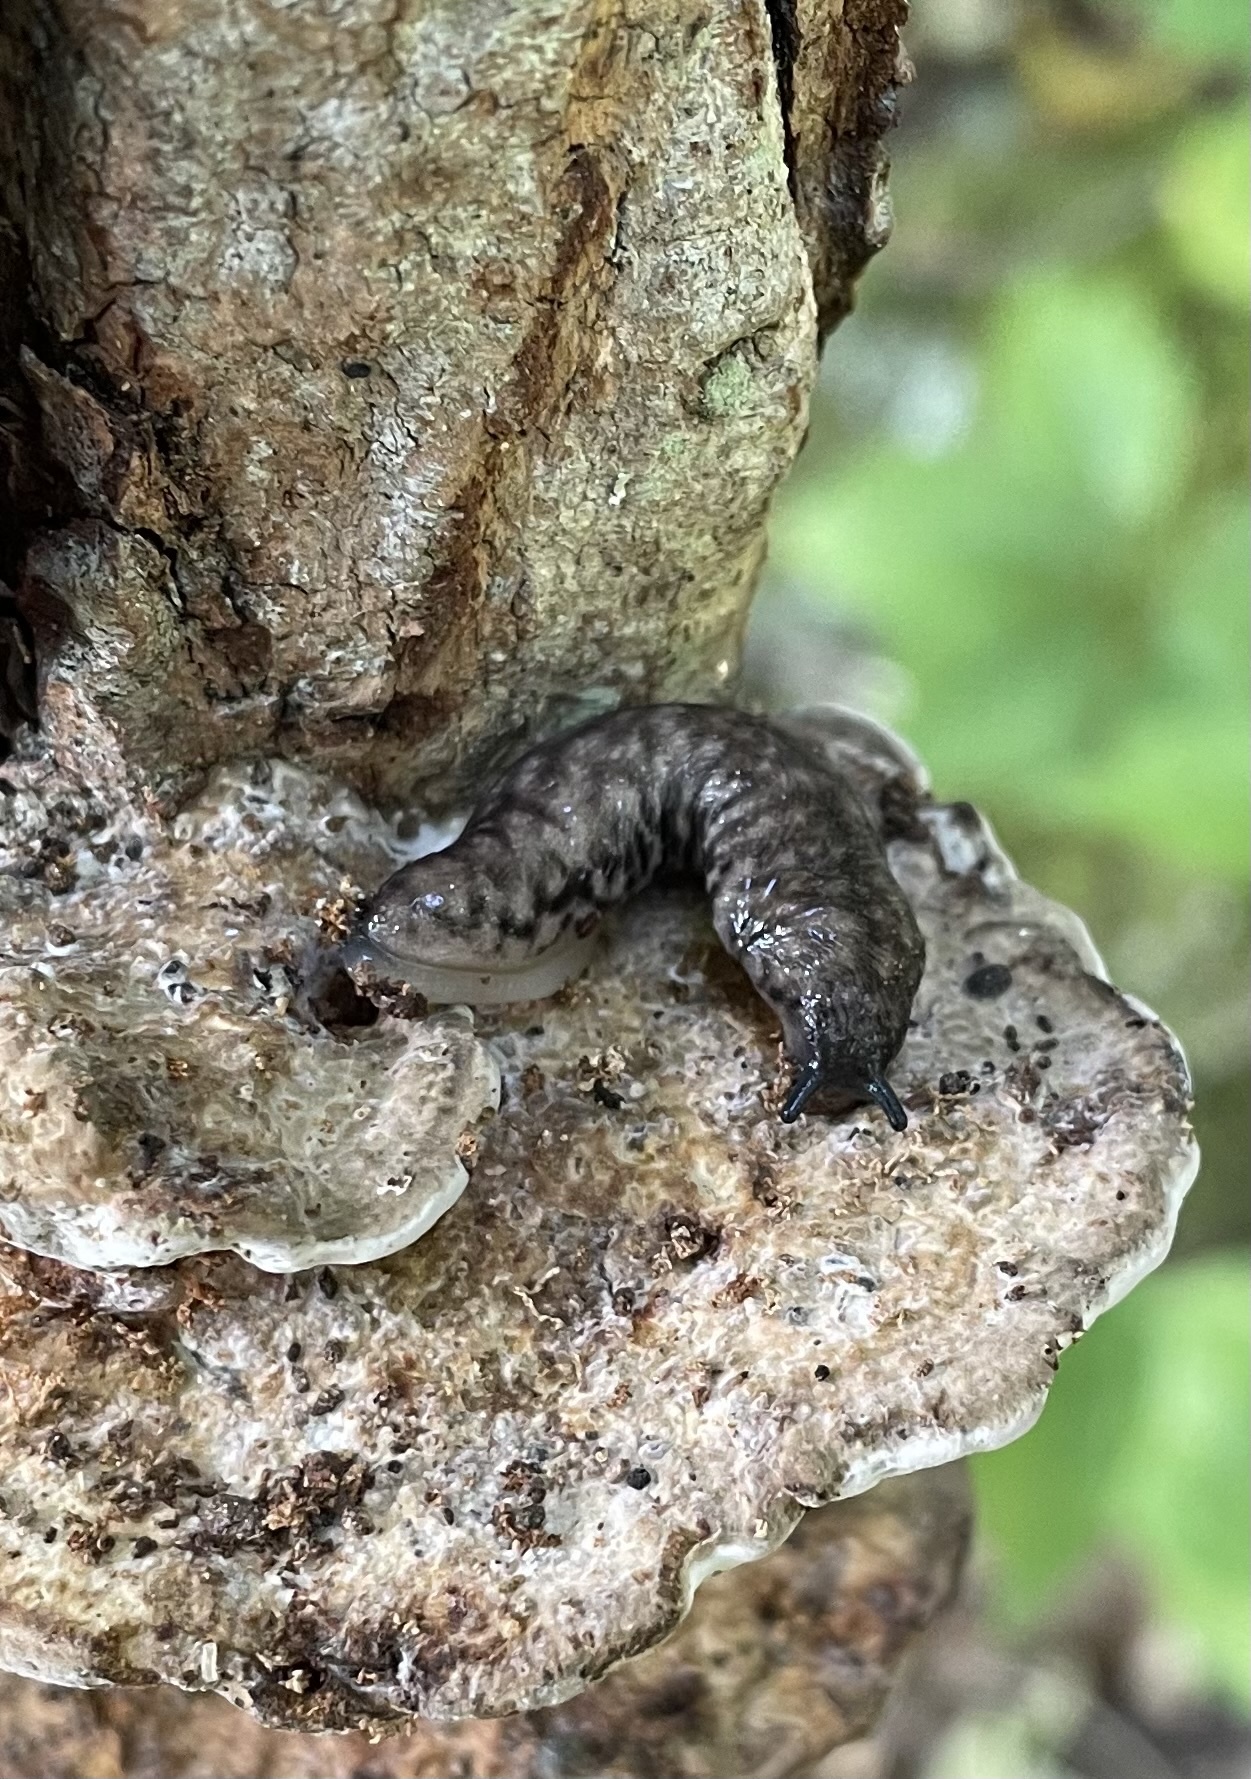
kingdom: Animalia
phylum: Mollusca
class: Gastropoda
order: Stylommatophora
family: Philomycidae
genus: Pallifera
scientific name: Pallifera varia
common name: Variable mantleslug
